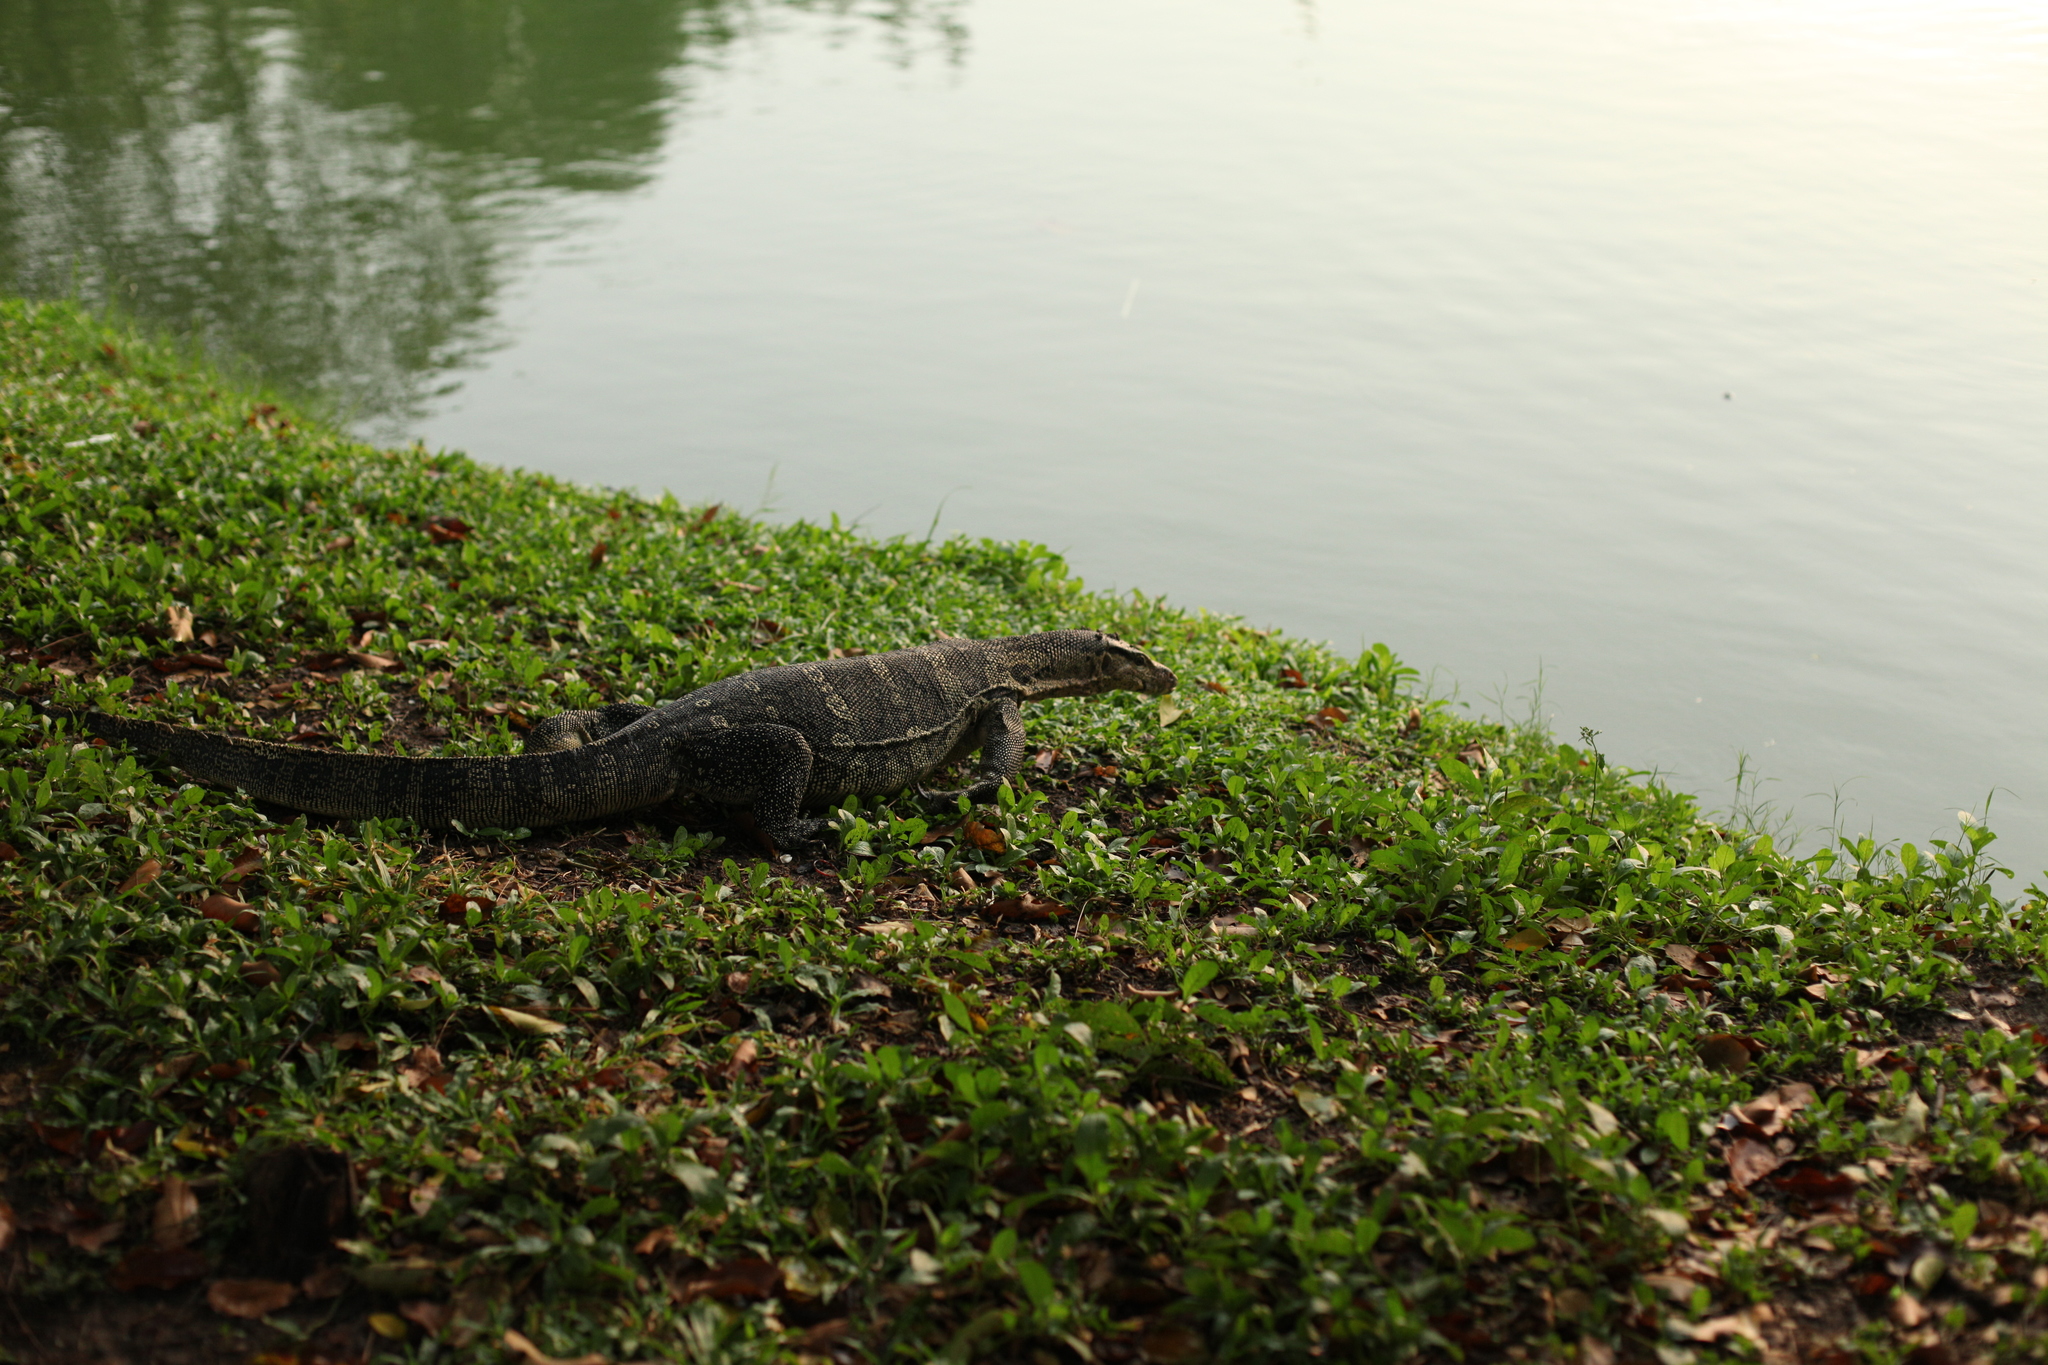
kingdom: Animalia
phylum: Chordata
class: Squamata
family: Varanidae
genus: Varanus
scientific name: Varanus salvator
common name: Common water monitor
